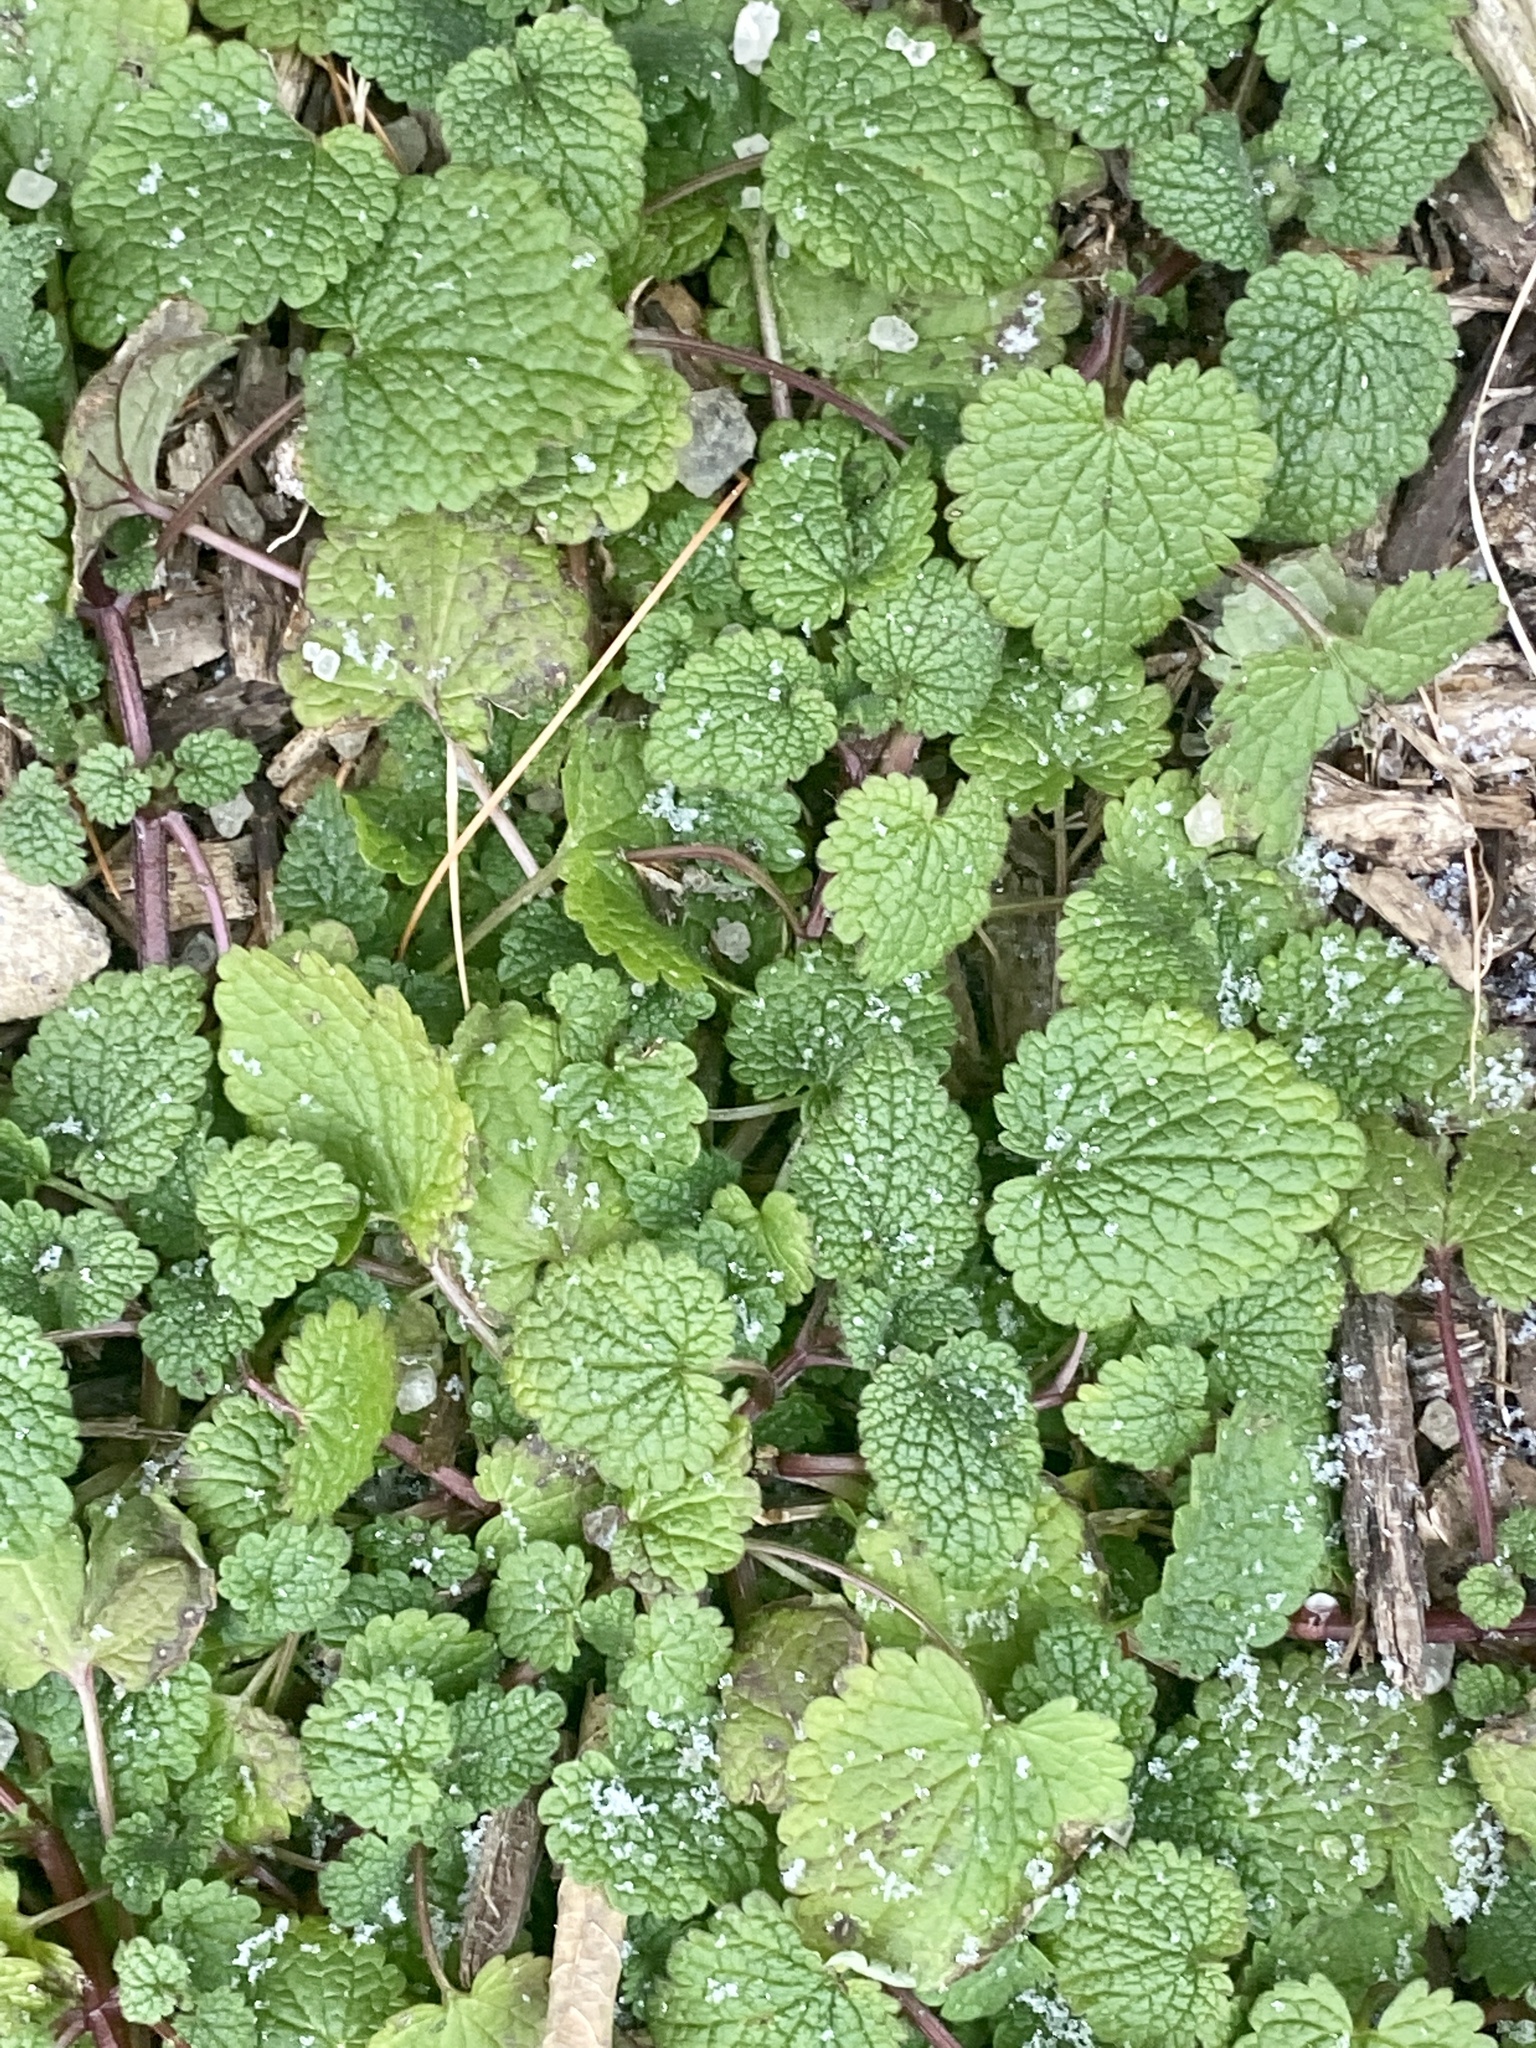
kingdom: Plantae
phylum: Tracheophyta
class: Magnoliopsida
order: Lamiales
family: Lamiaceae
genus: Lamium
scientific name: Lamium purpureum
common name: Red dead-nettle
